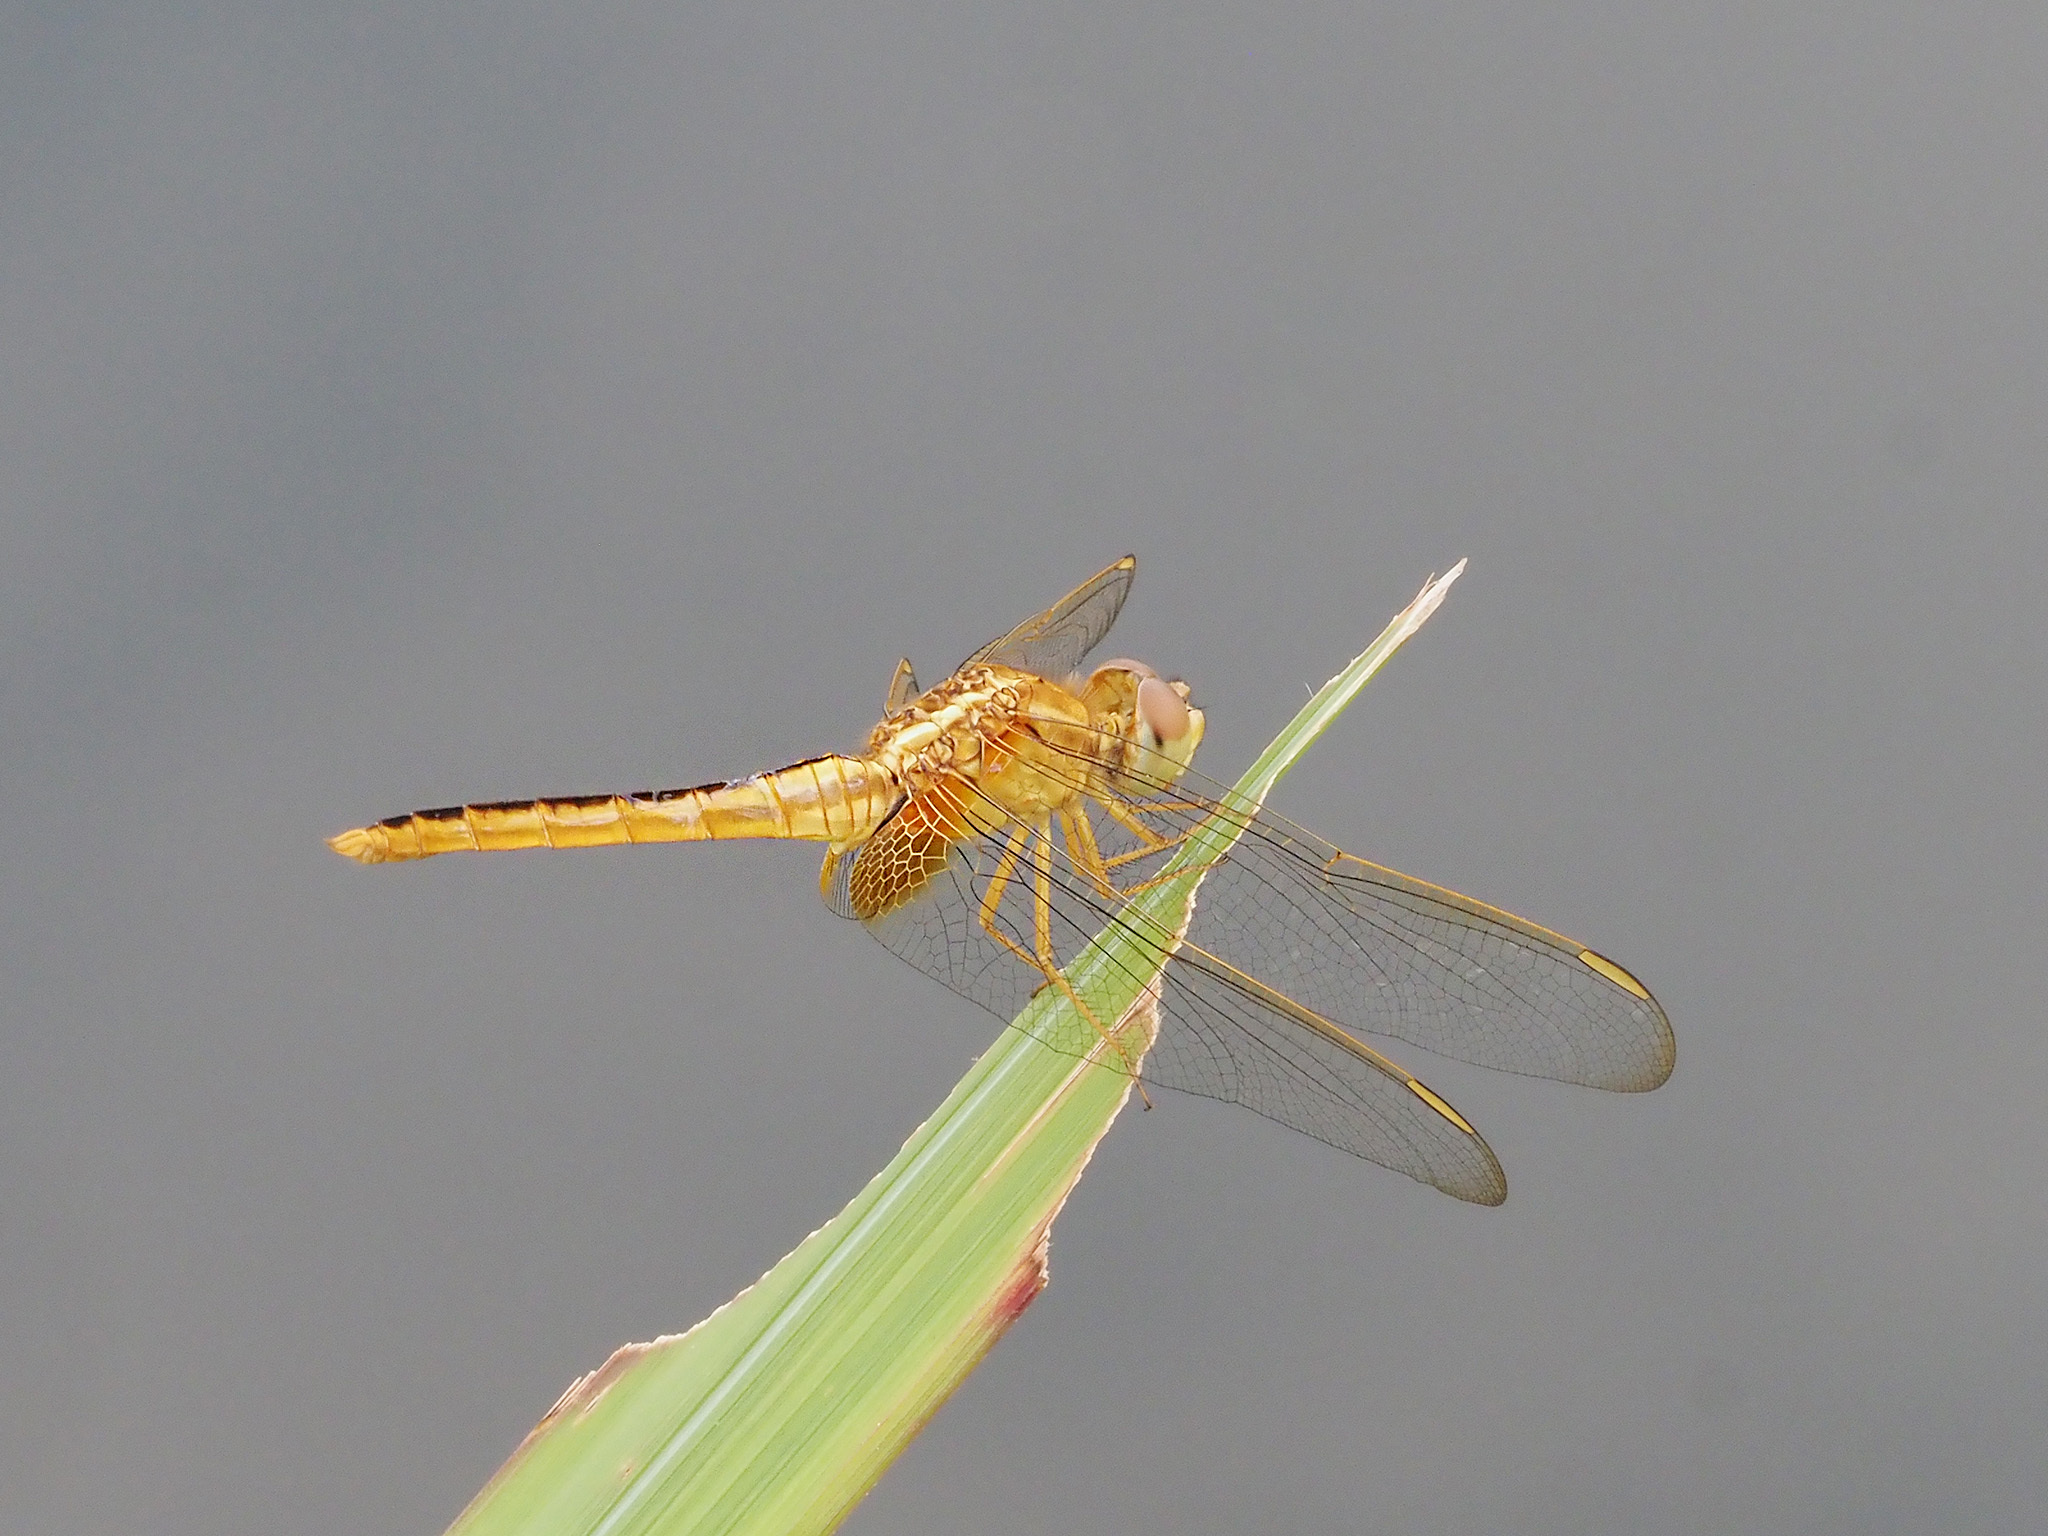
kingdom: Animalia
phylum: Arthropoda
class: Insecta
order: Odonata
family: Libellulidae
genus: Crocothemis
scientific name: Crocothemis servilia
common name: Scarlet skimmer
